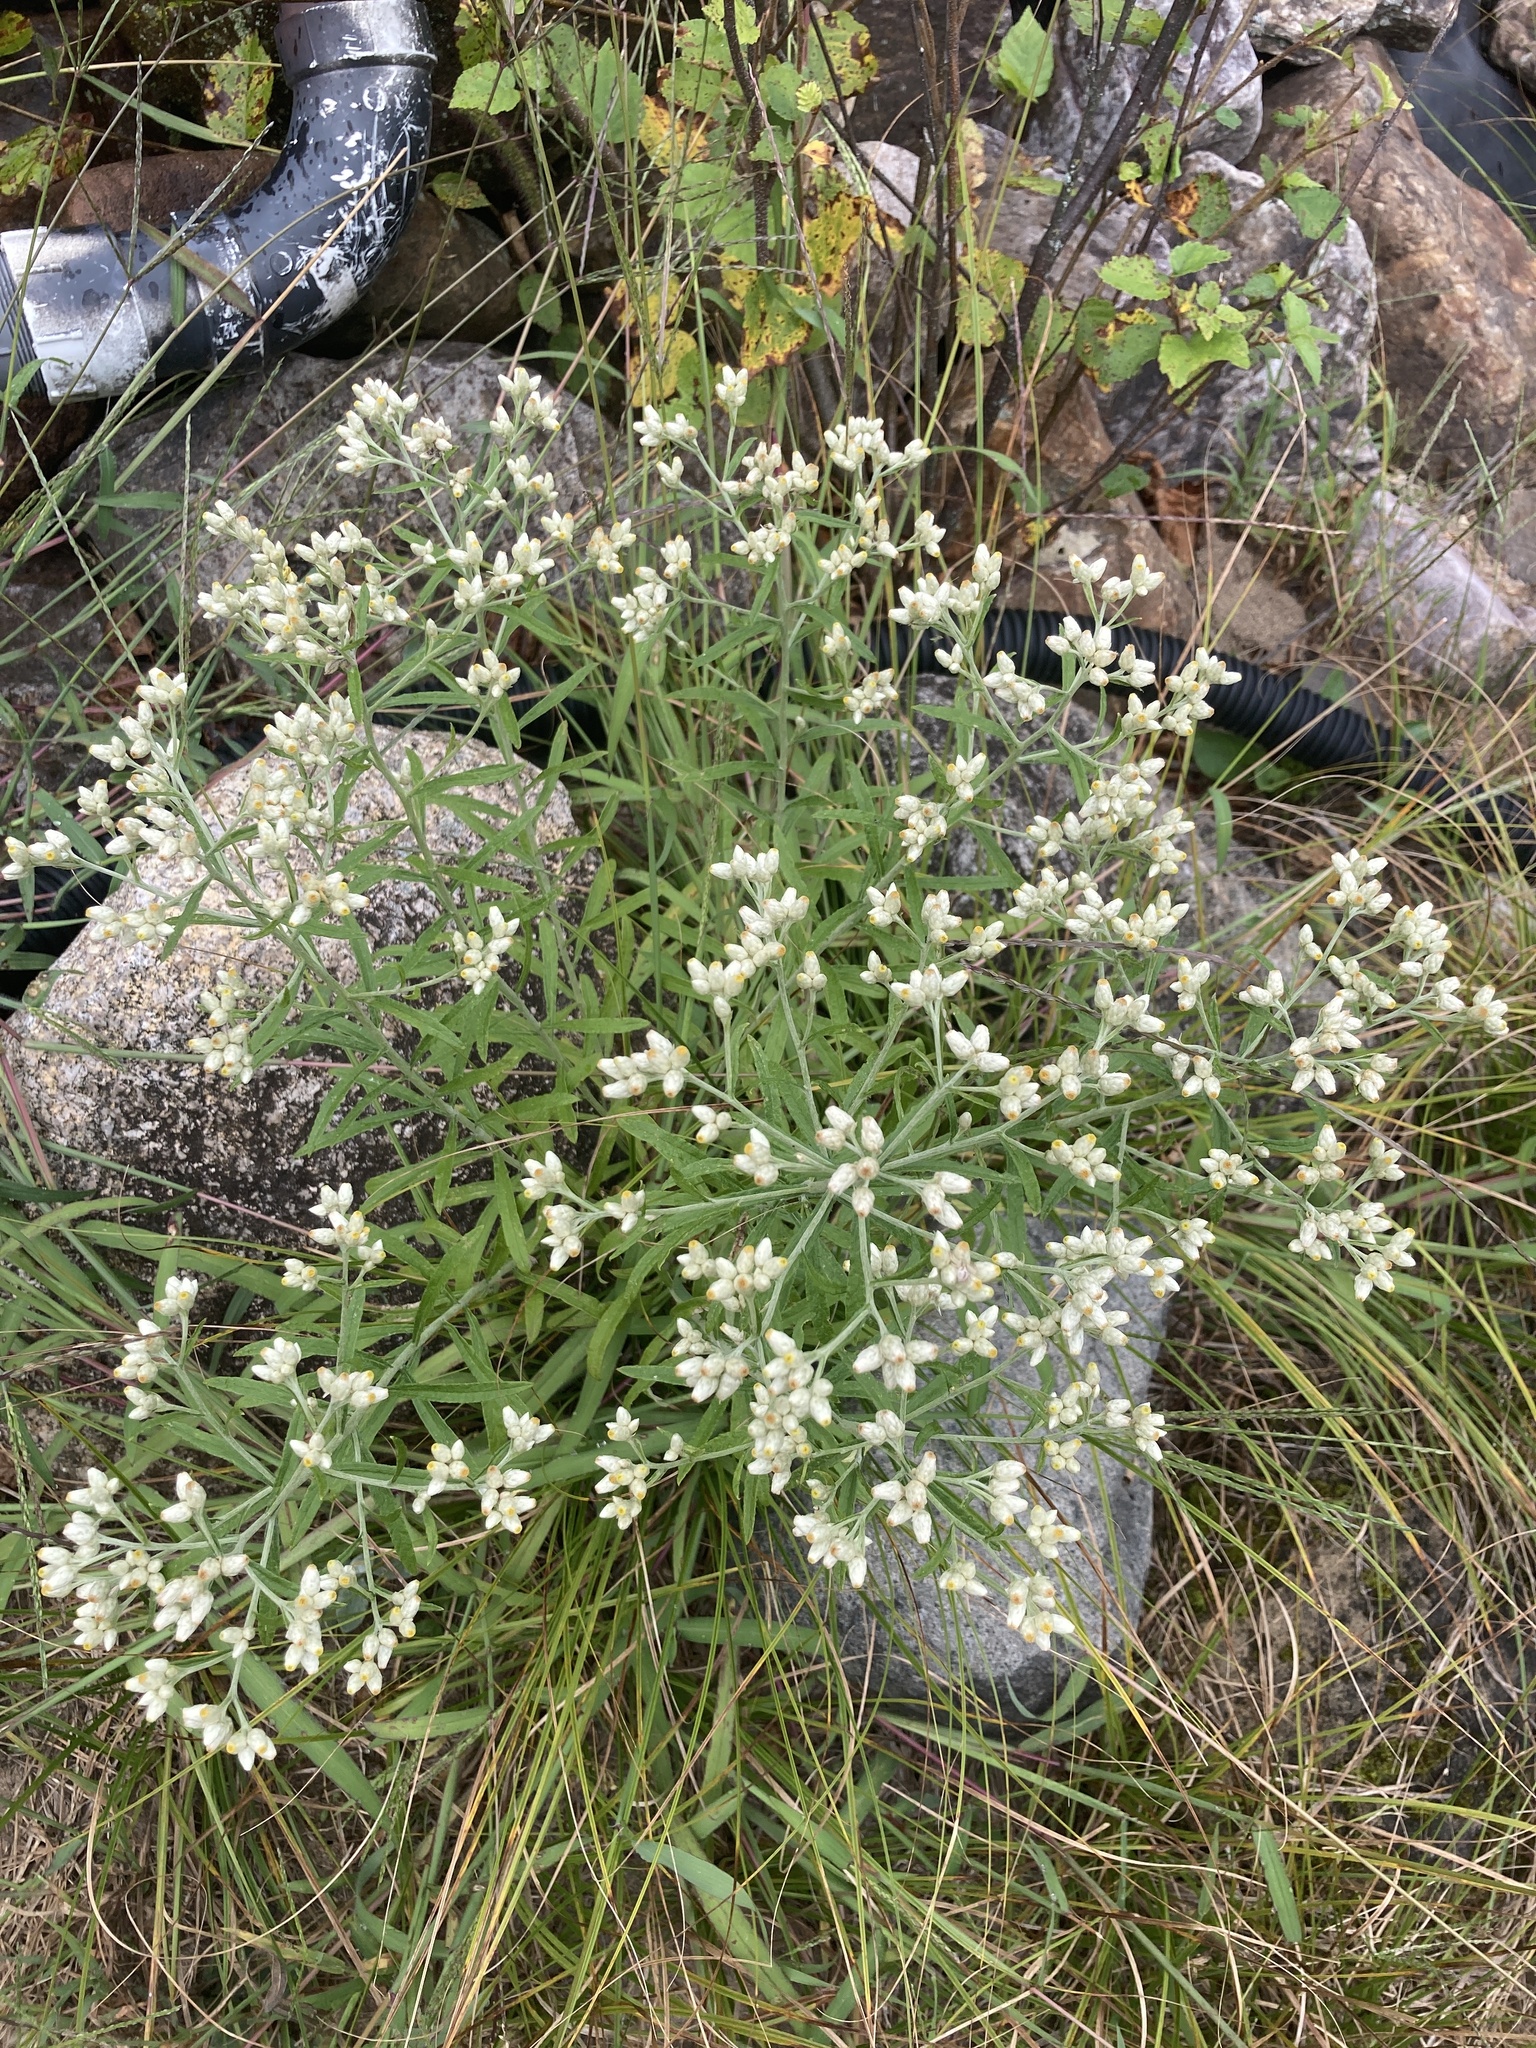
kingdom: Plantae
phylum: Tracheophyta
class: Magnoliopsida
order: Asterales
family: Asteraceae
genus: Pseudognaphalium
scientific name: Pseudognaphalium obtusifolium
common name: Eastern rabbit-tobacco
